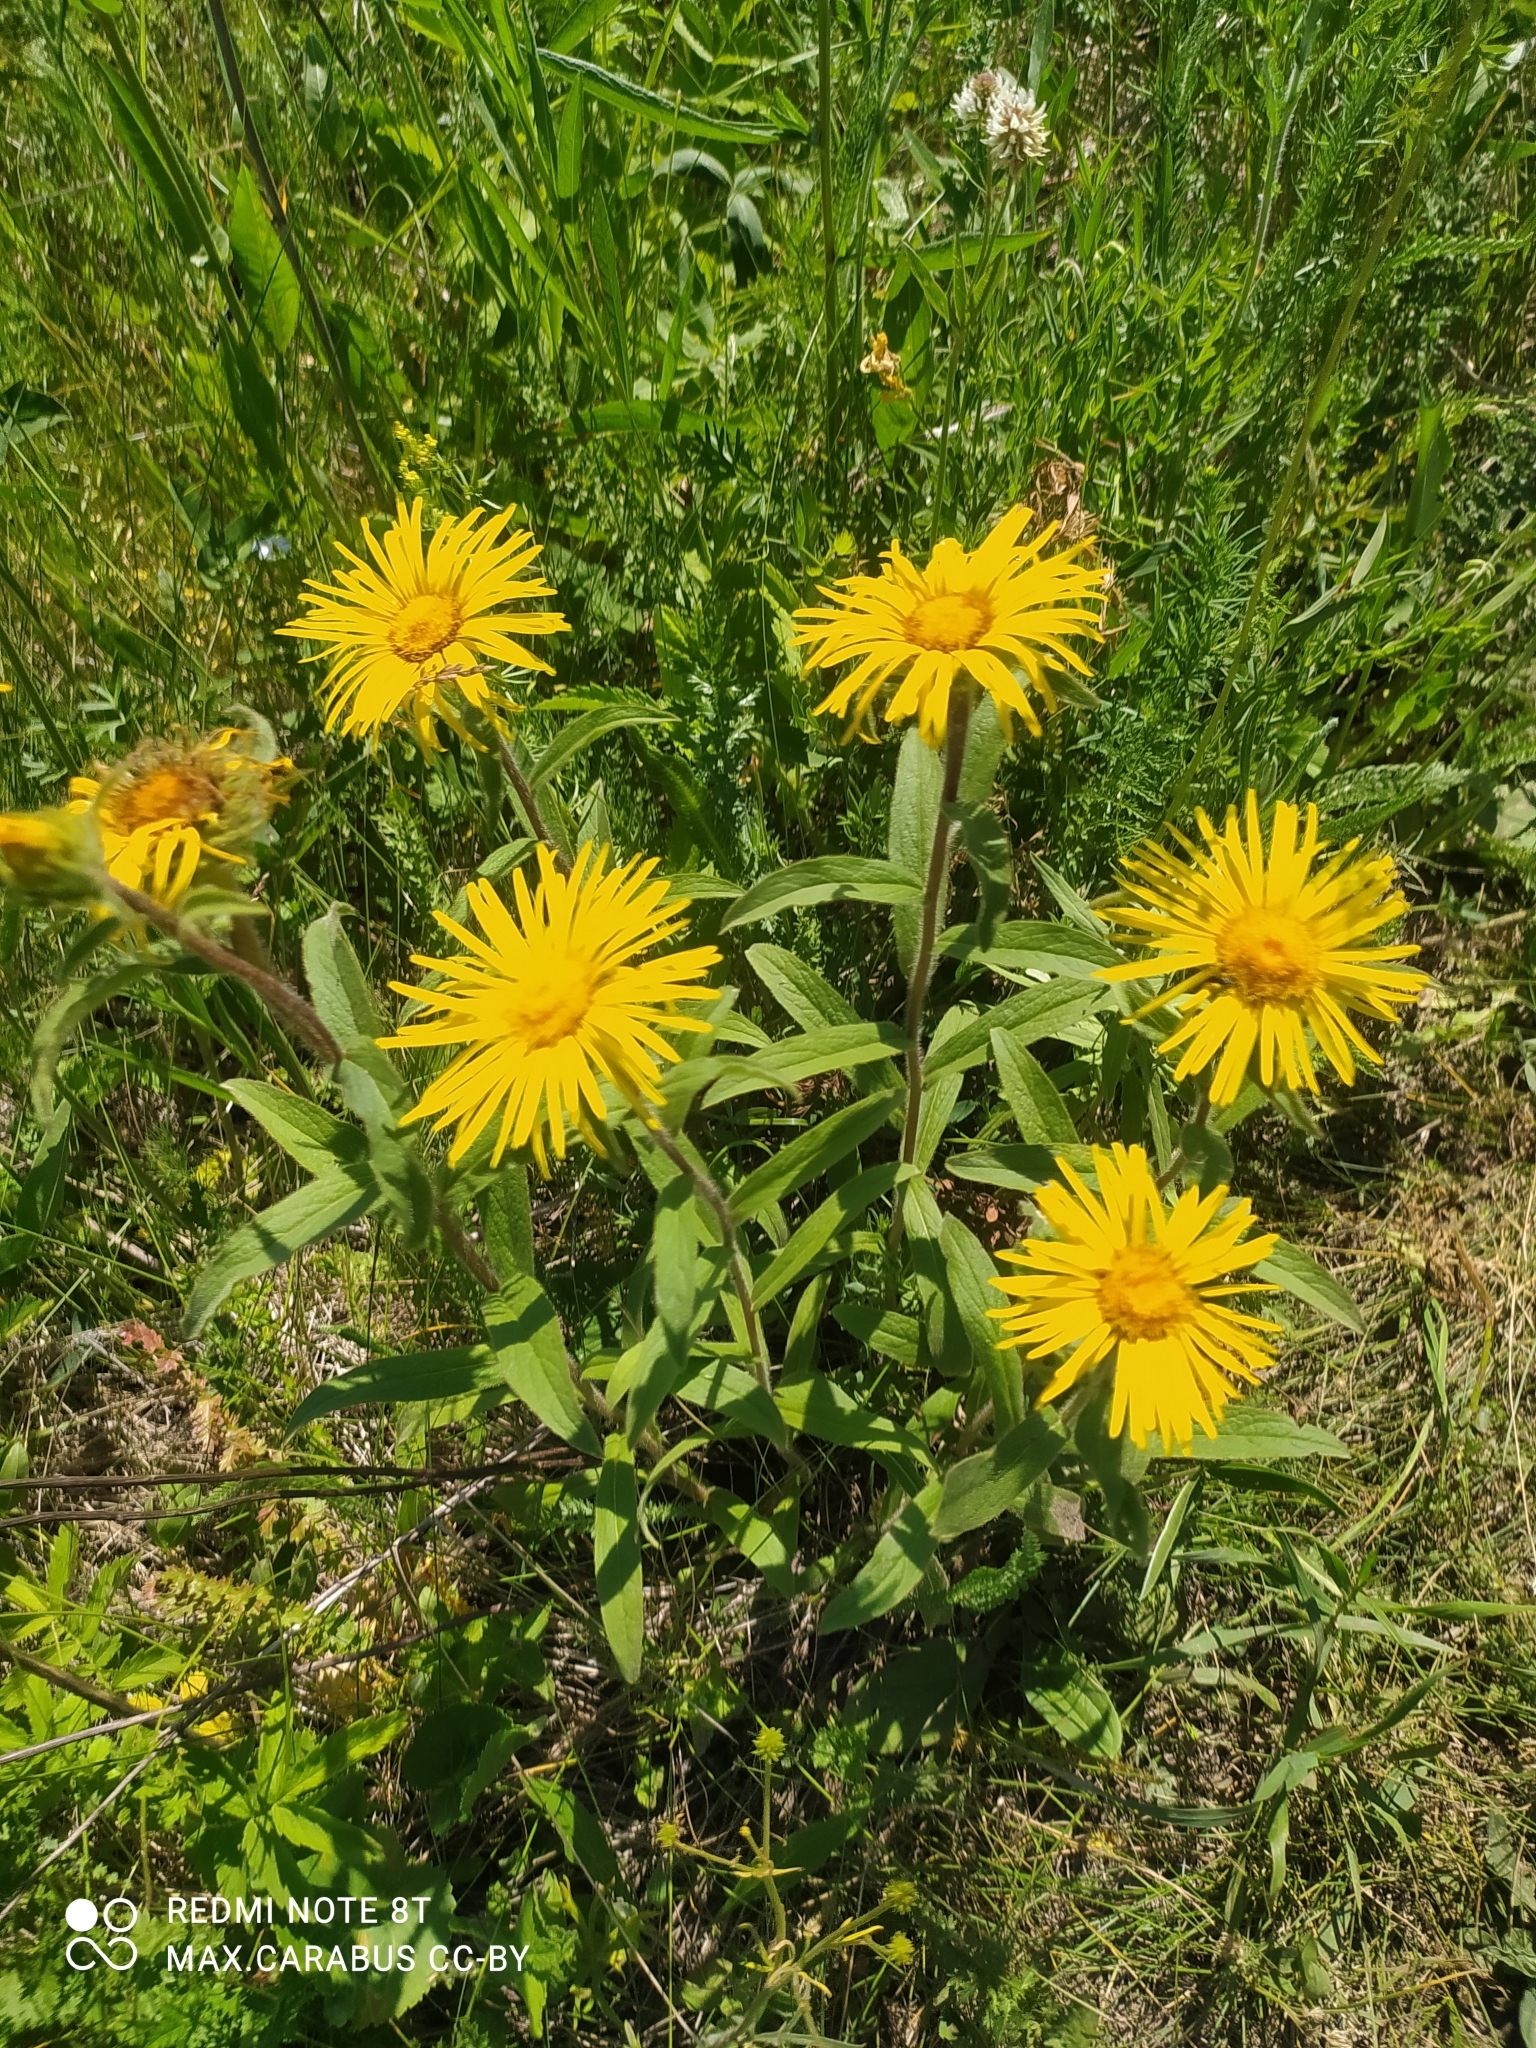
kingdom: Plantae
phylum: Tracheophyta
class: Magnoliopsida
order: Asterales
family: Asteraceae
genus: Pentanema
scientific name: Pentanema hirtum
